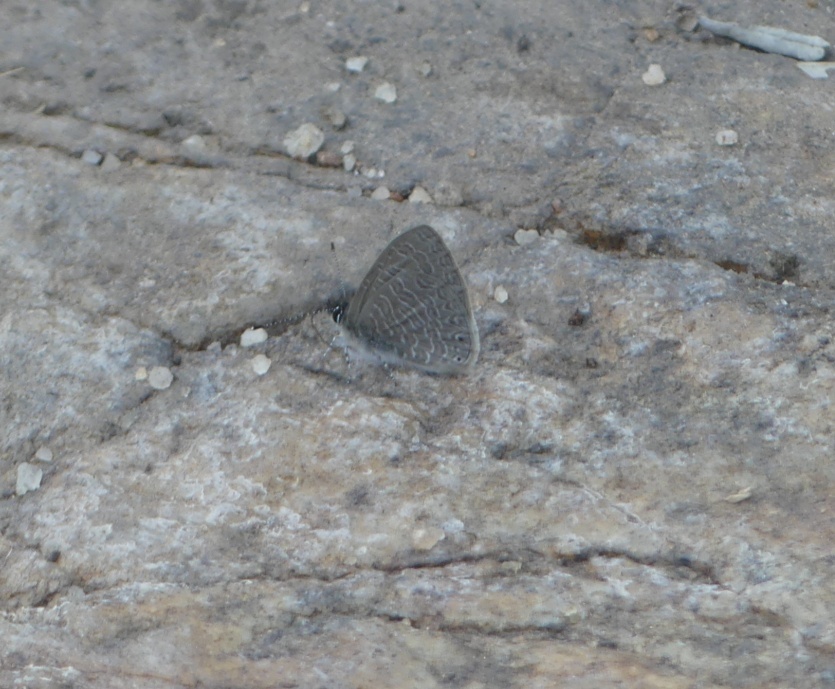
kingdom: Animalia
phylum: Arthropoda
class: Insecta
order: Lepidoptera
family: Lycaenidae
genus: Pseudonacaduba
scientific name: Pseudonacaduba sichela
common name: African line blue
